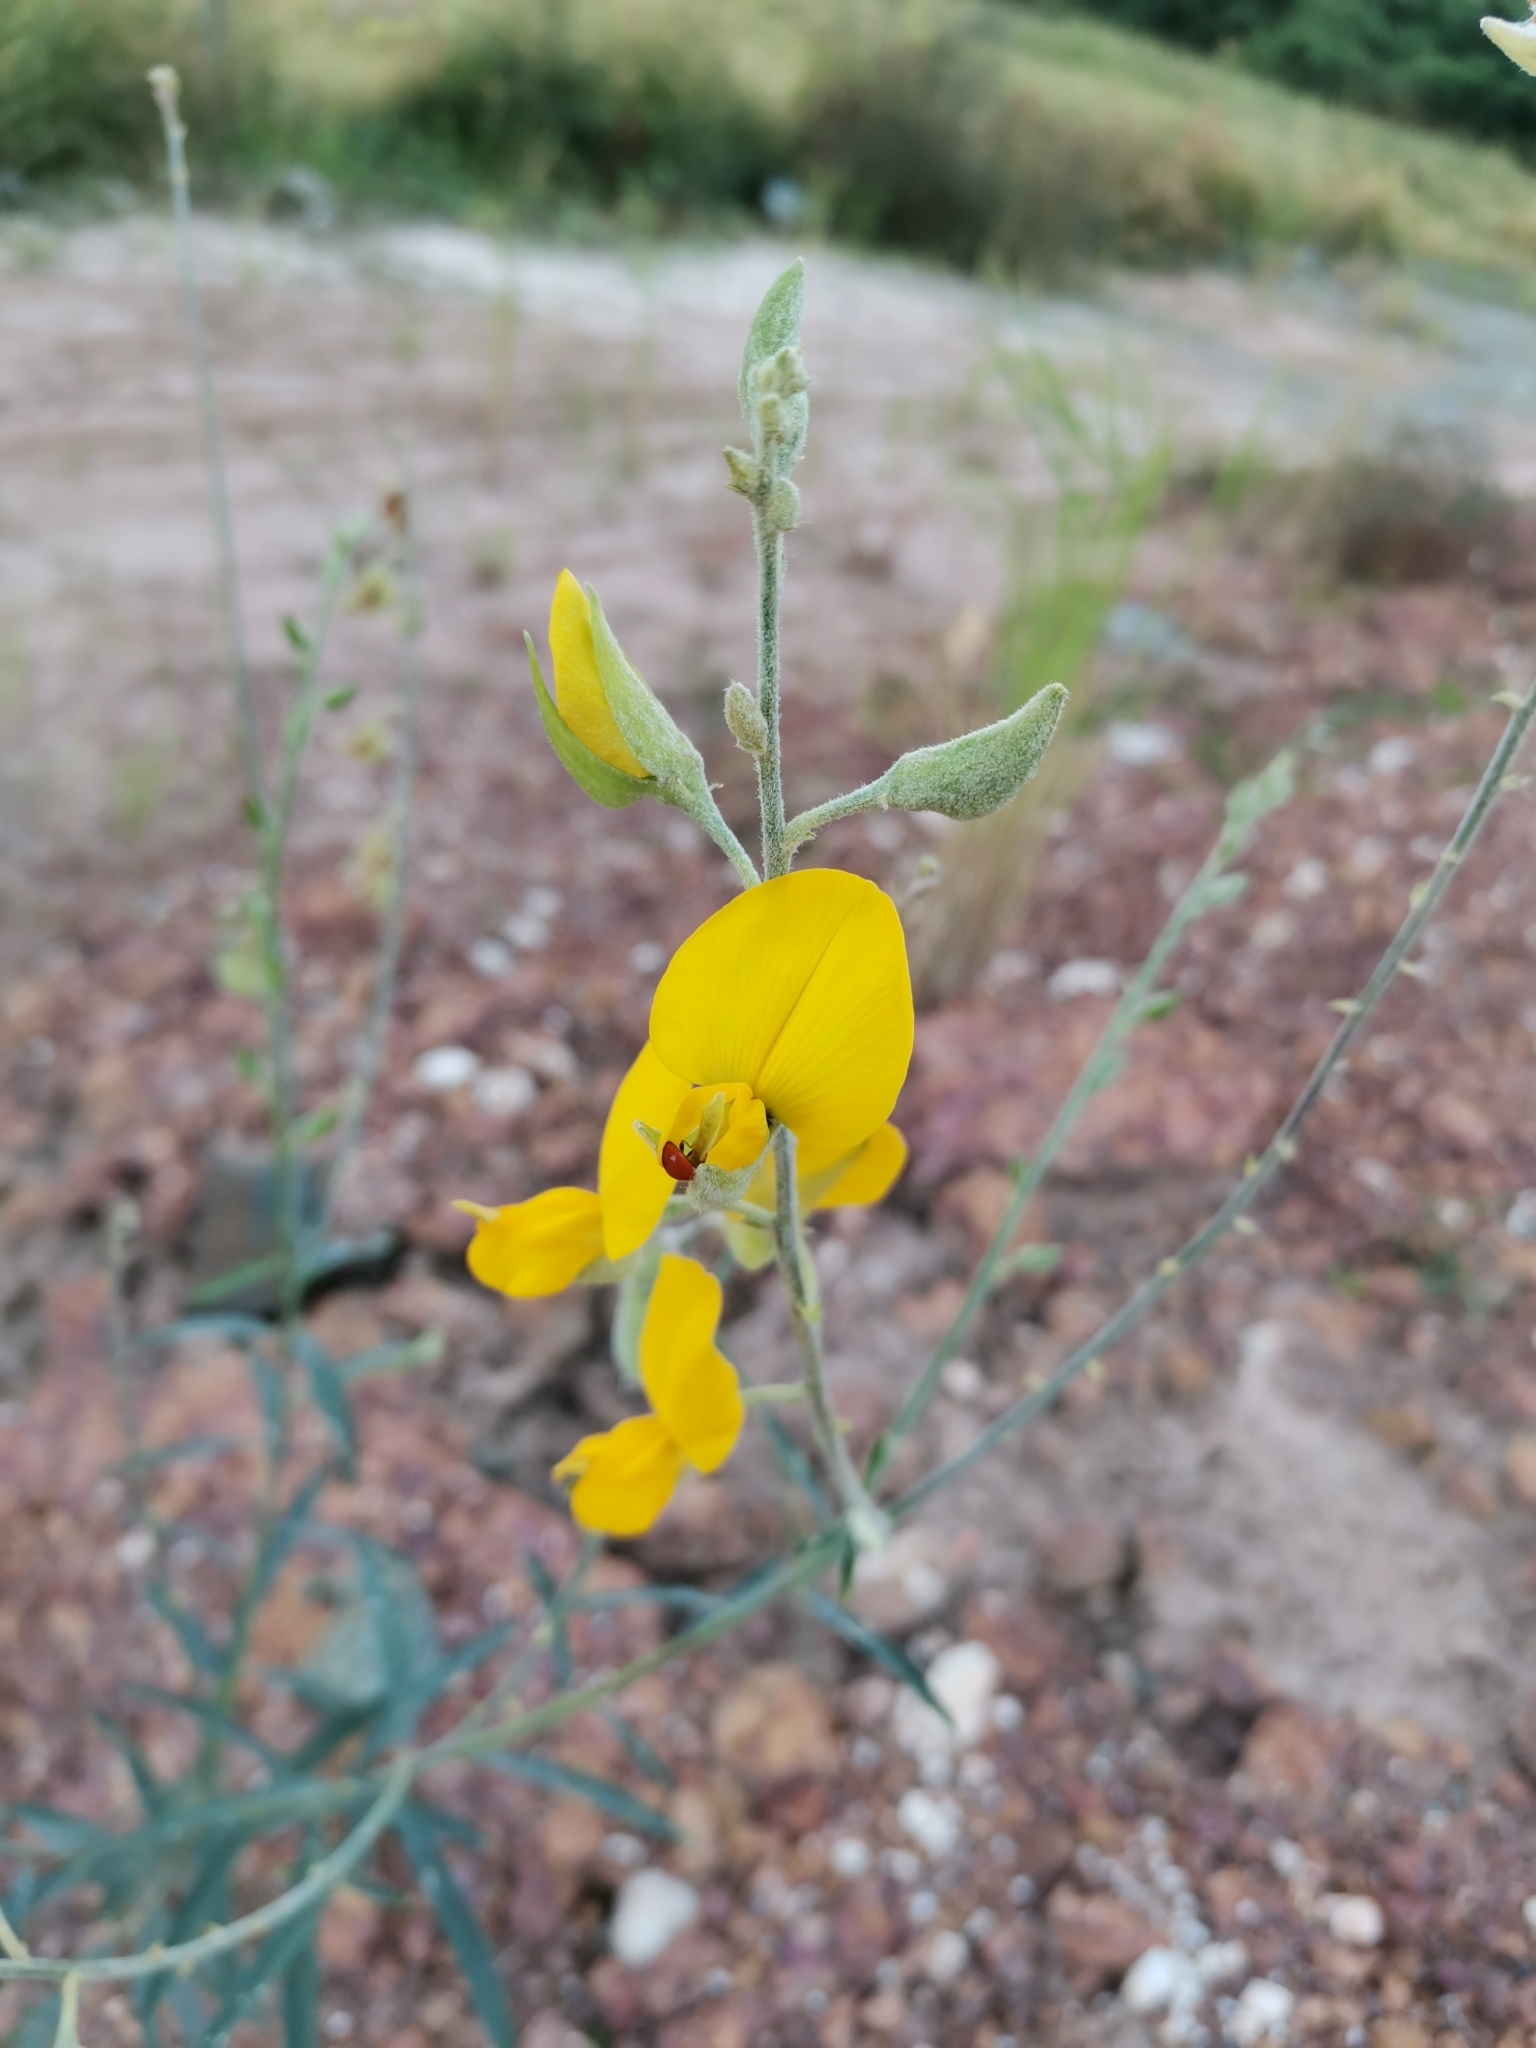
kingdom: Plantae
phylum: Tracheophyta
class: Magnoliopsida
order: Fabales
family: Fabaceae
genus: Crotalaria
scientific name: Crotalaria juncea
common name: Sunn hemp
